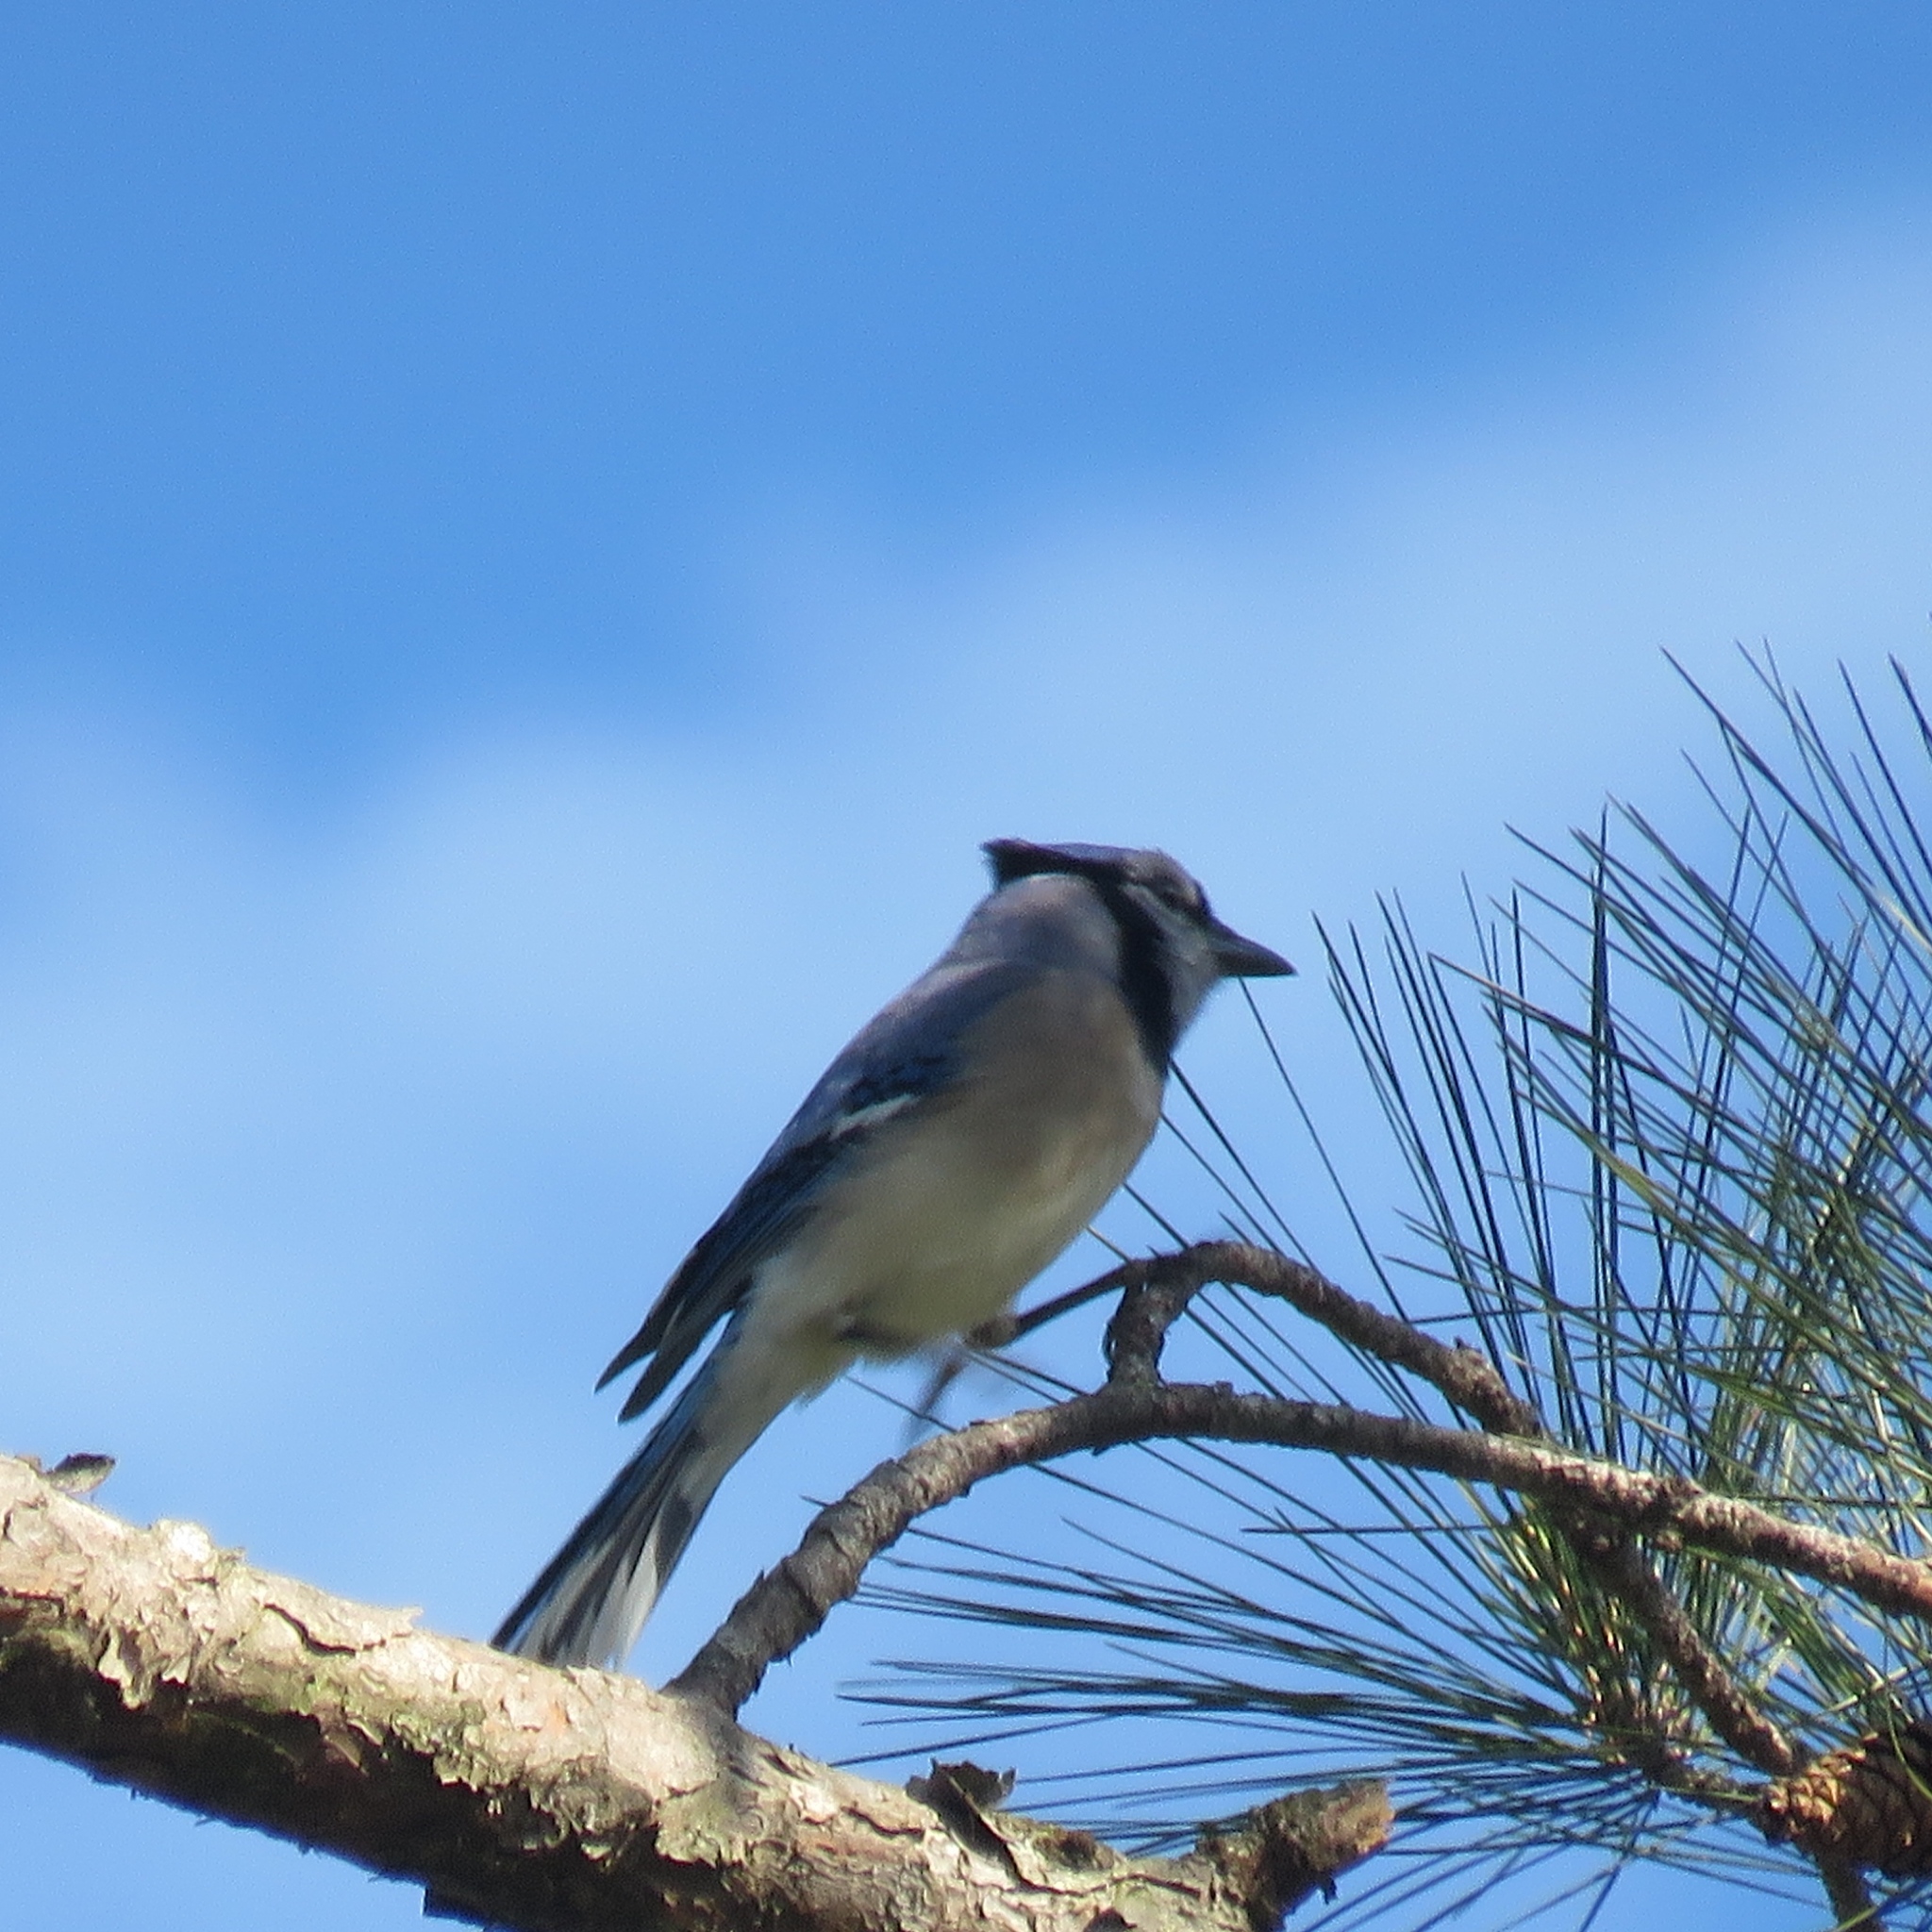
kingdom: Animalia
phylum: Chordata
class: Aves
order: Passeriformes
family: Corvidae
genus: Cyanocitta
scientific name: Cyanocitta cristata
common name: Blue jay
